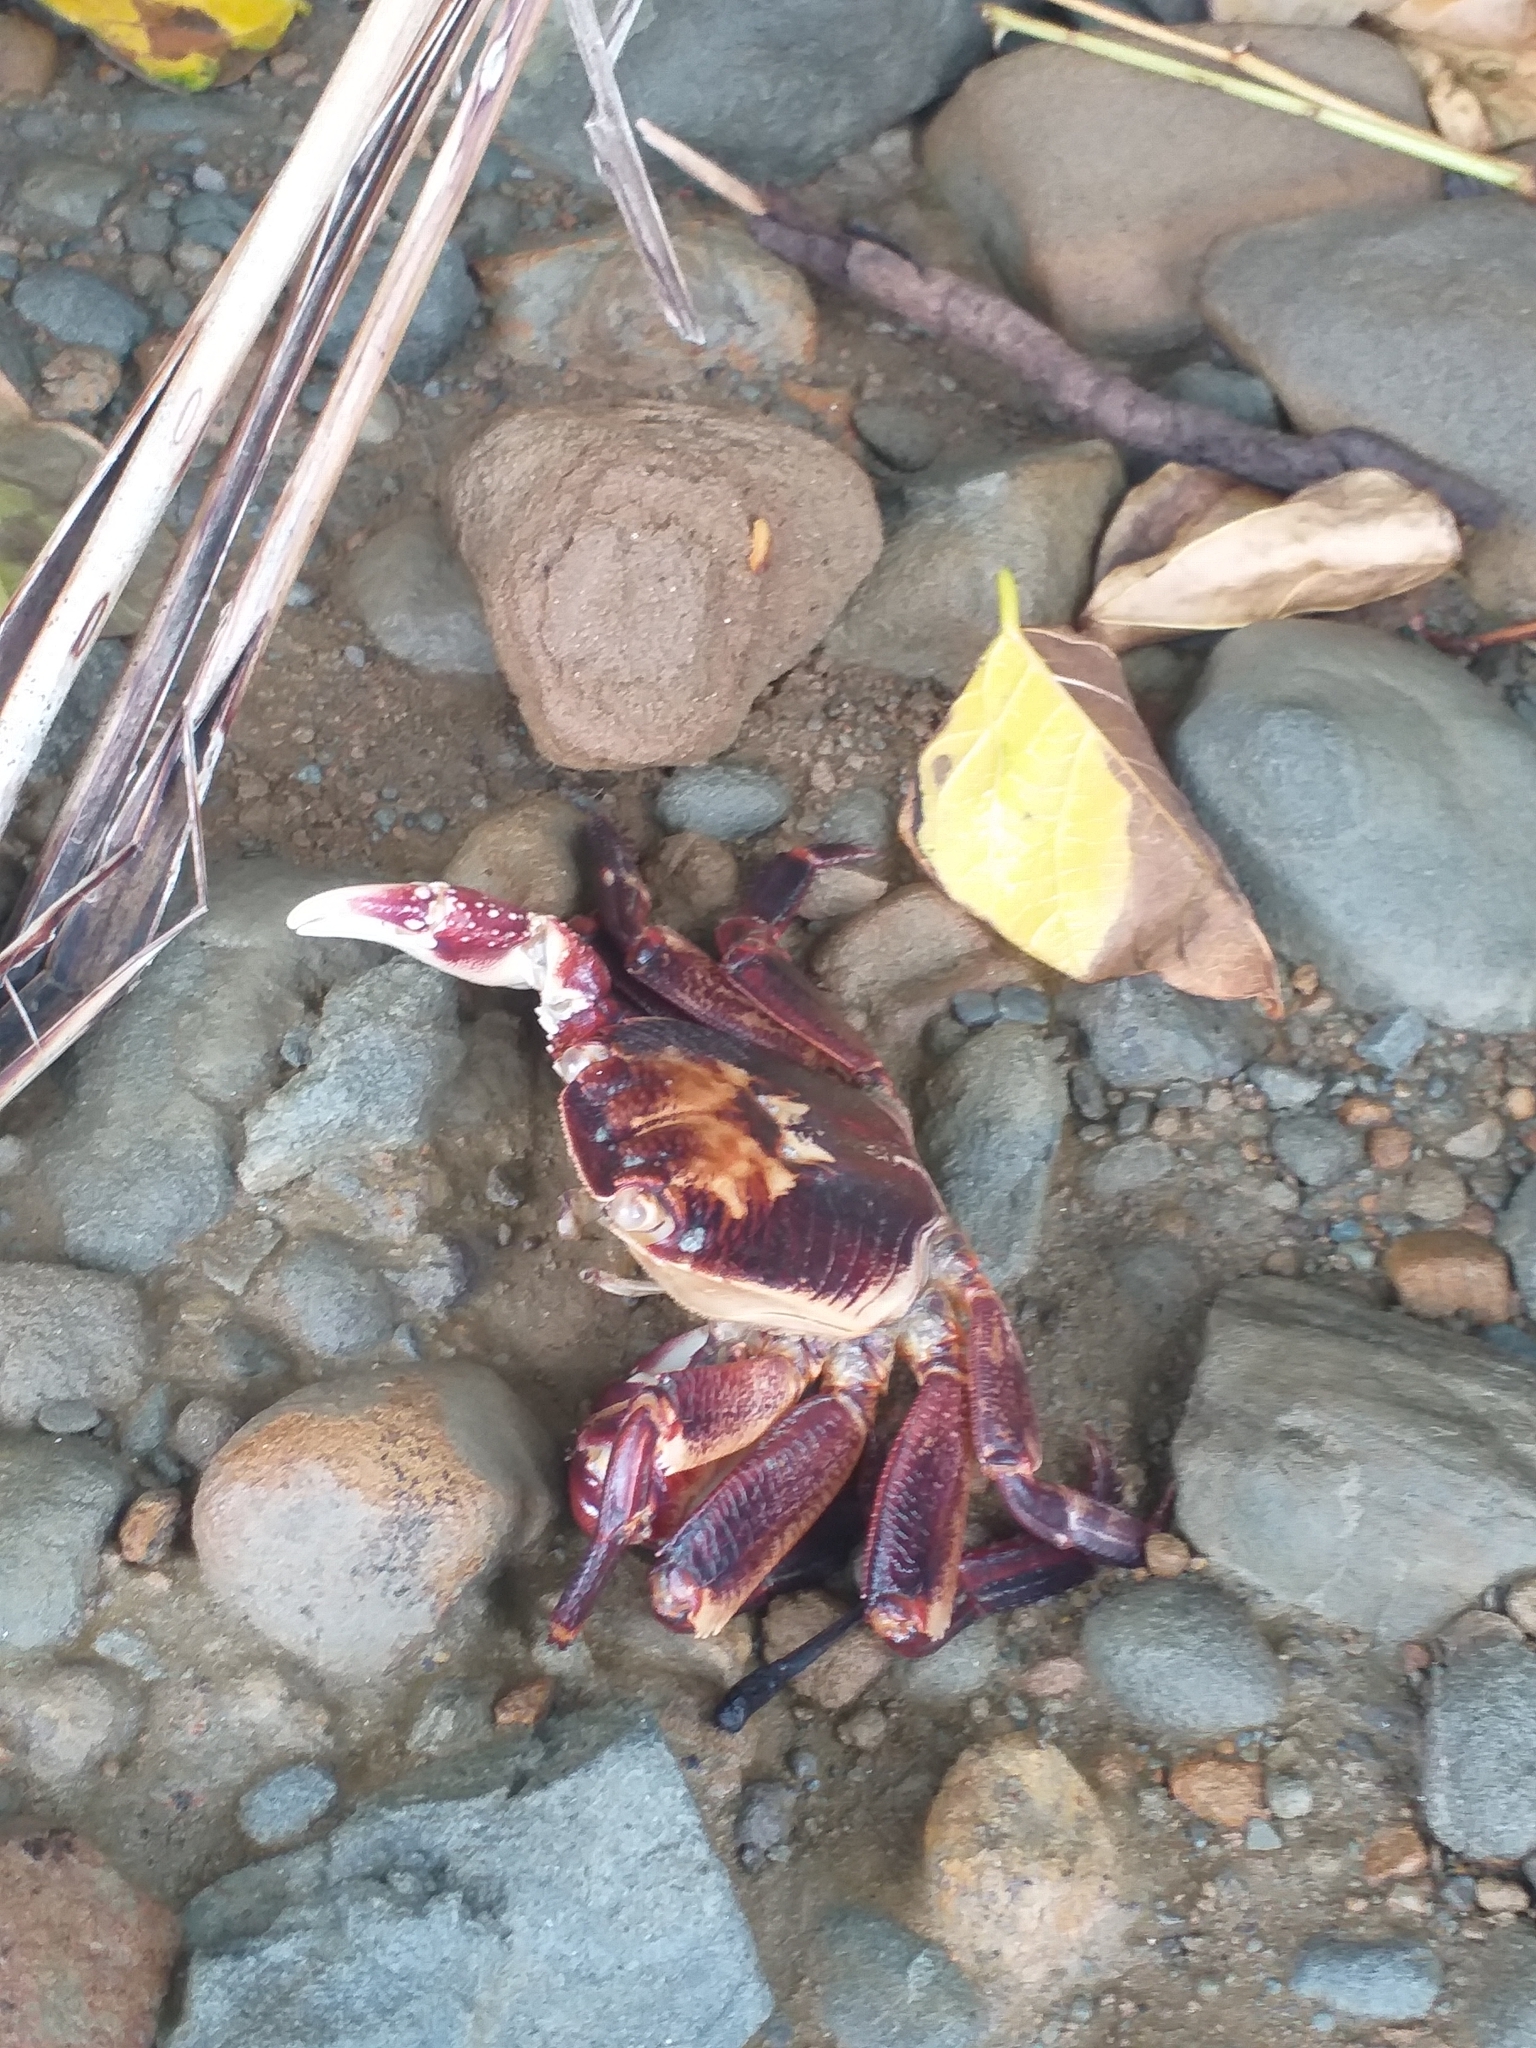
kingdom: Animalia
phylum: Arthropoda
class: Malacostraca
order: Decapoda
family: Grapsidae
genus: Leptograpsus
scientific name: Leptograpsus variegatus
